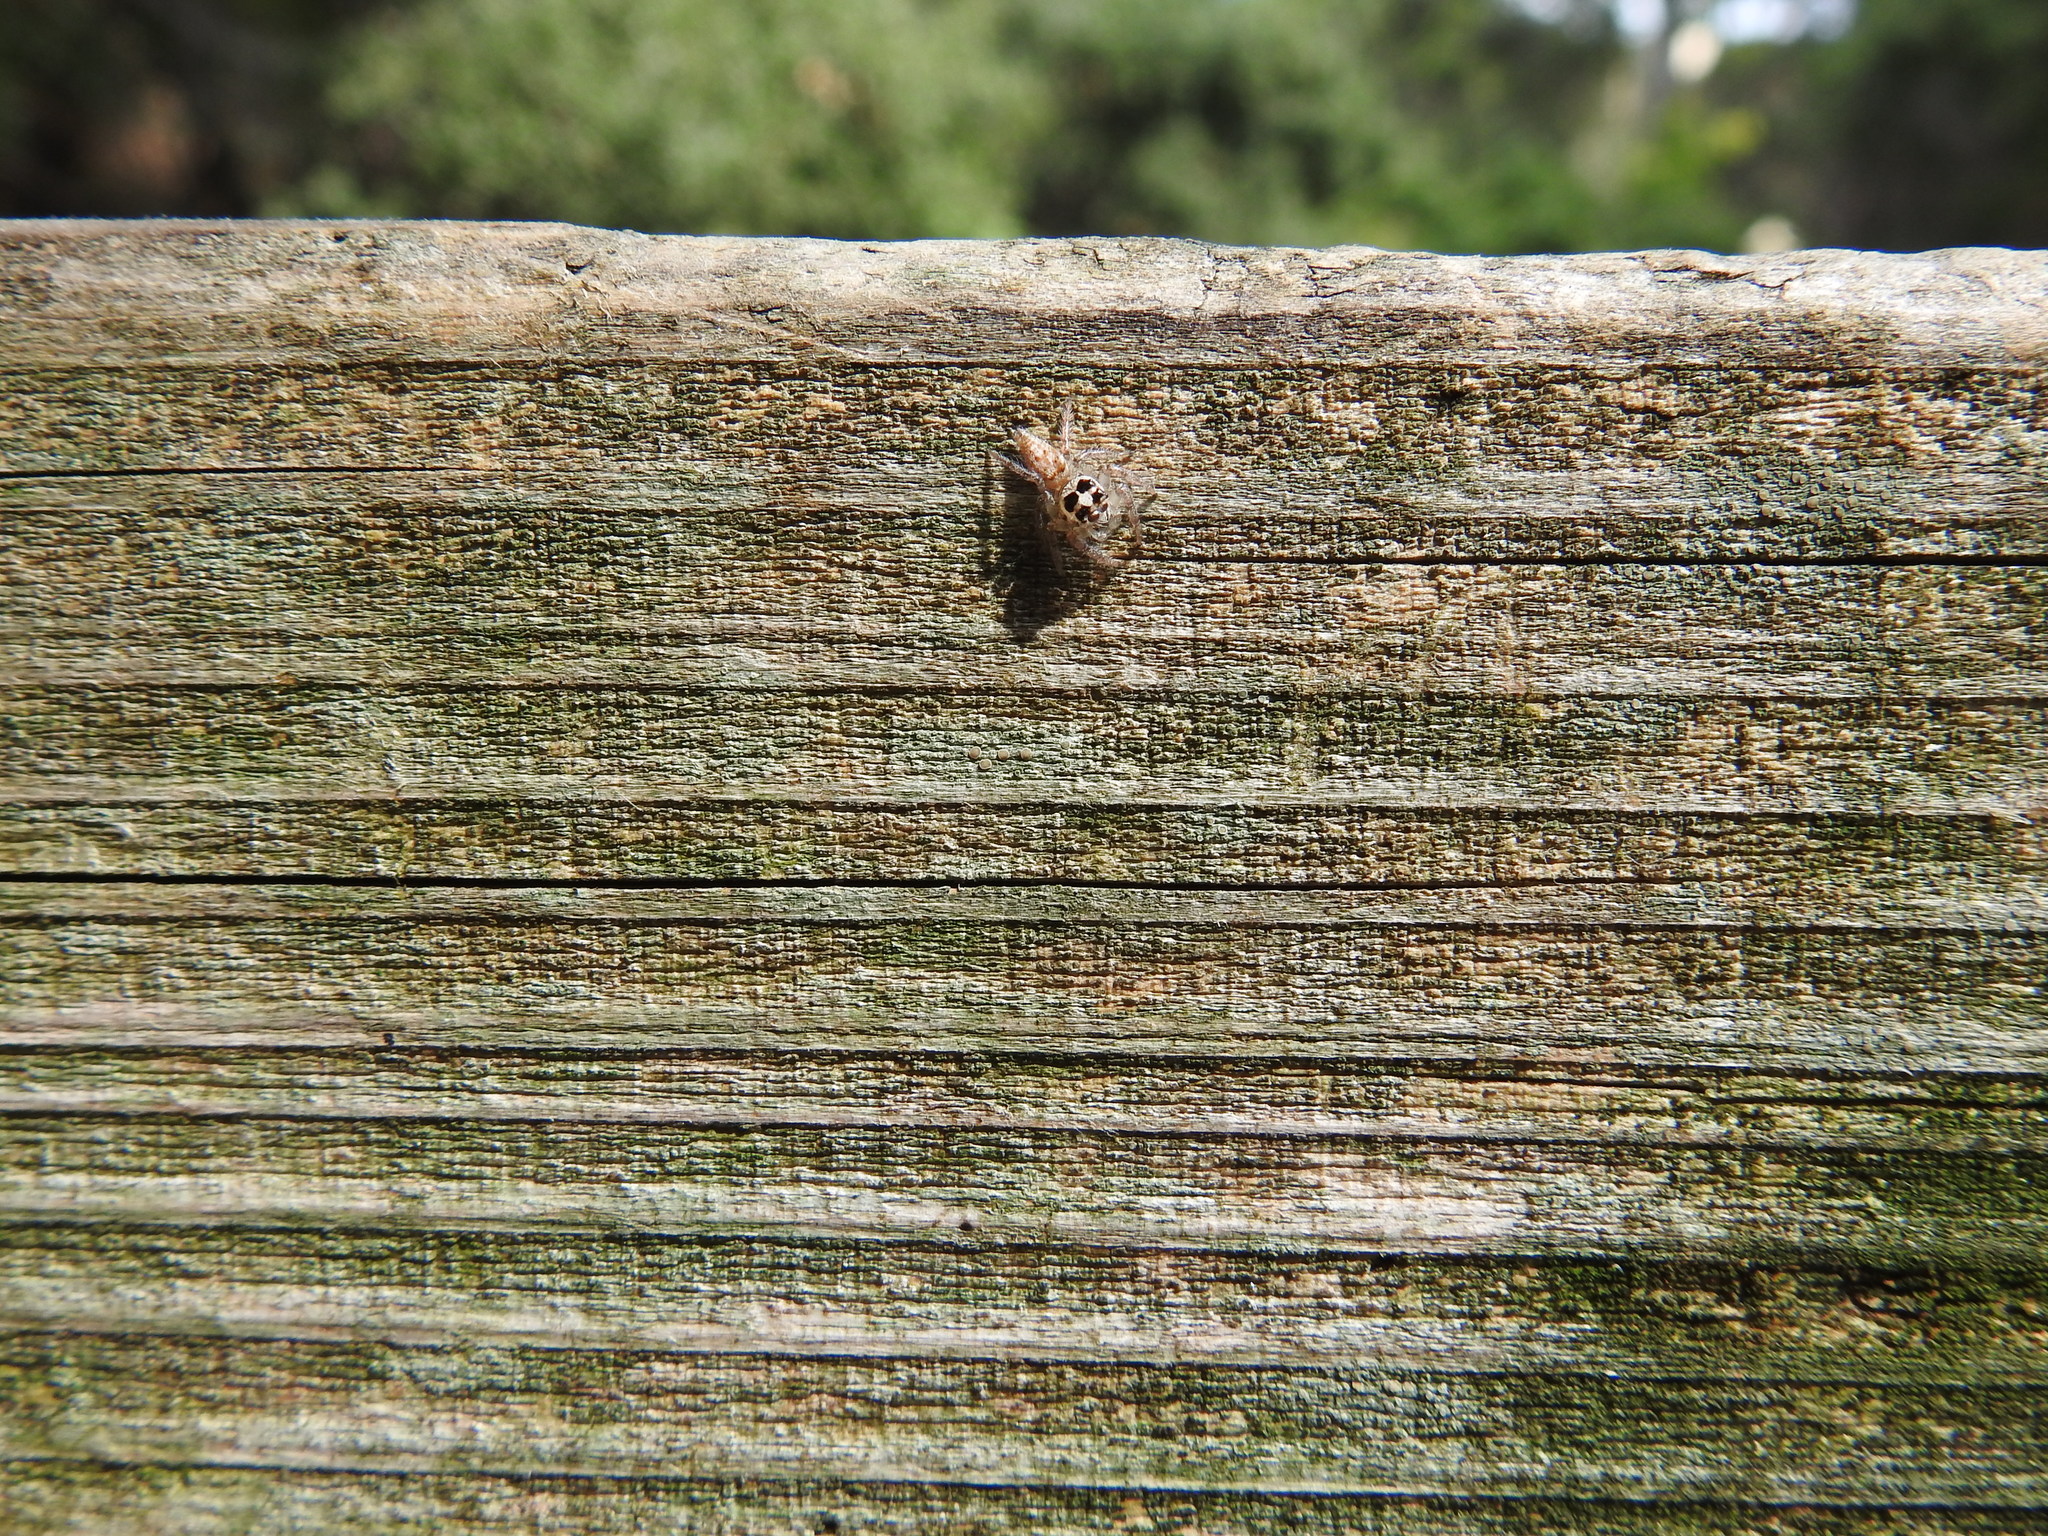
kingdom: Animalia
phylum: Arthropoda
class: Arachnida
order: Araneae
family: Salticidae
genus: Colonus
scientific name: Colonus hesperus
